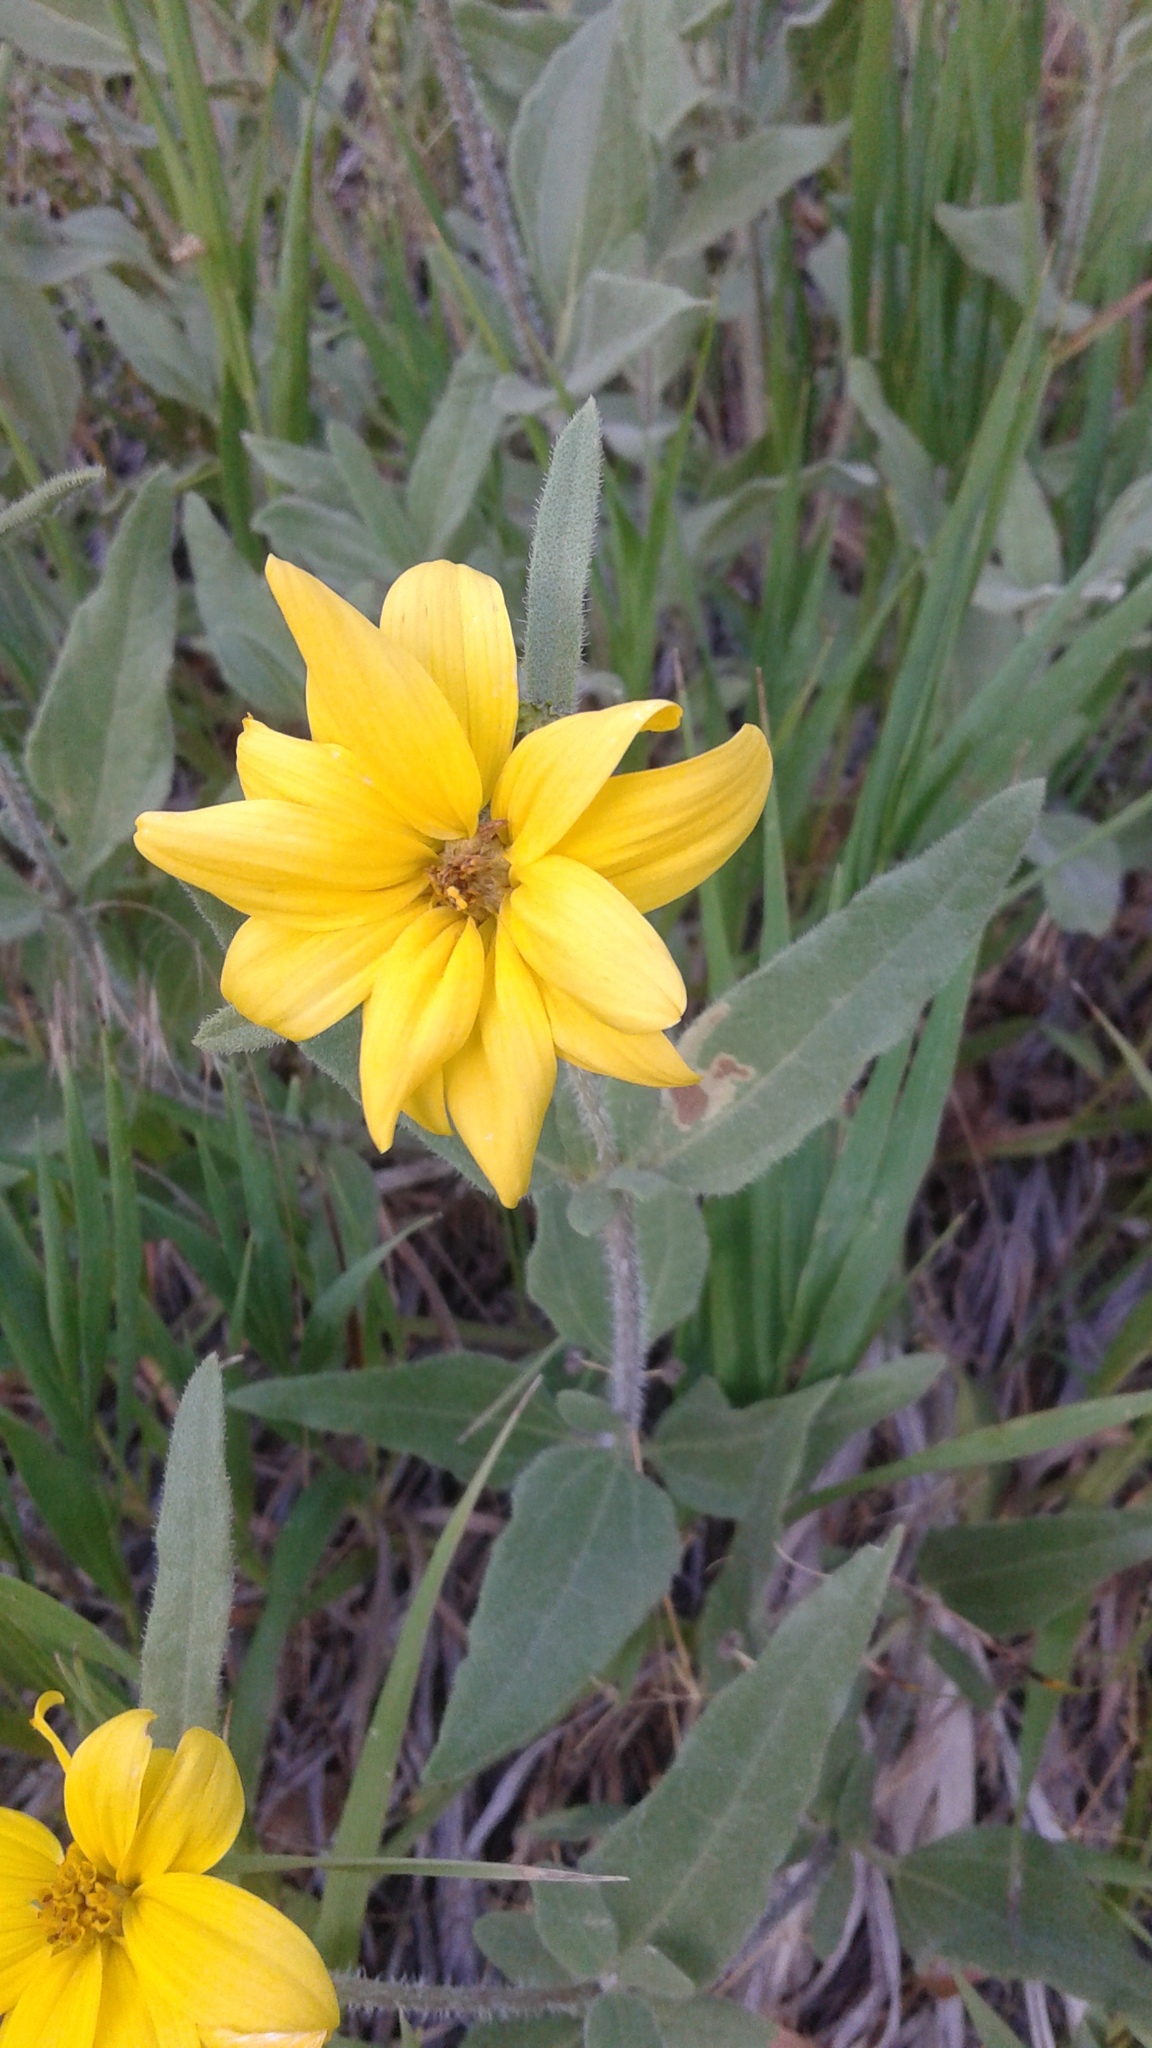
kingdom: Plantae
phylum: Tracheophyta
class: Magnoliopsida
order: Asterales
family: Asteraceae
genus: Helianthus
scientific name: Helianthus pumilus
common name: Dwarf sunflower
